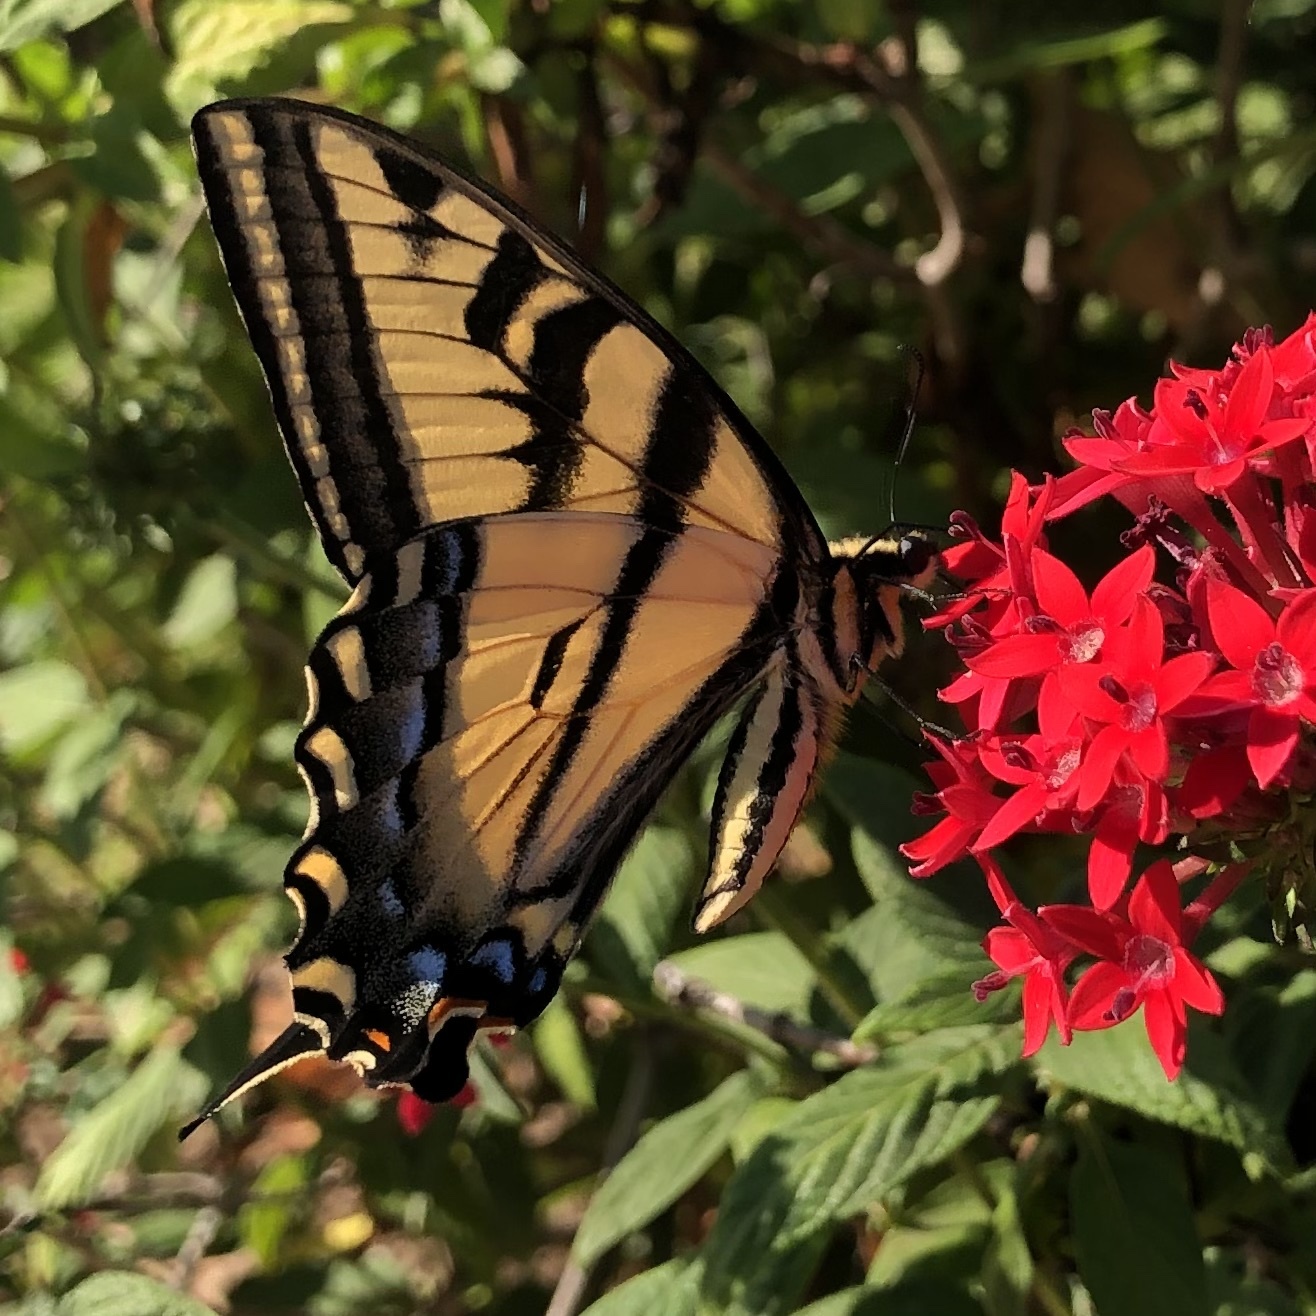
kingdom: Animalia
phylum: Arthropoda
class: Insecta
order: Lepidoptera
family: Papilionidae
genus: Papilio
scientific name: Papilio rutulus
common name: Western tiger swallowtail
